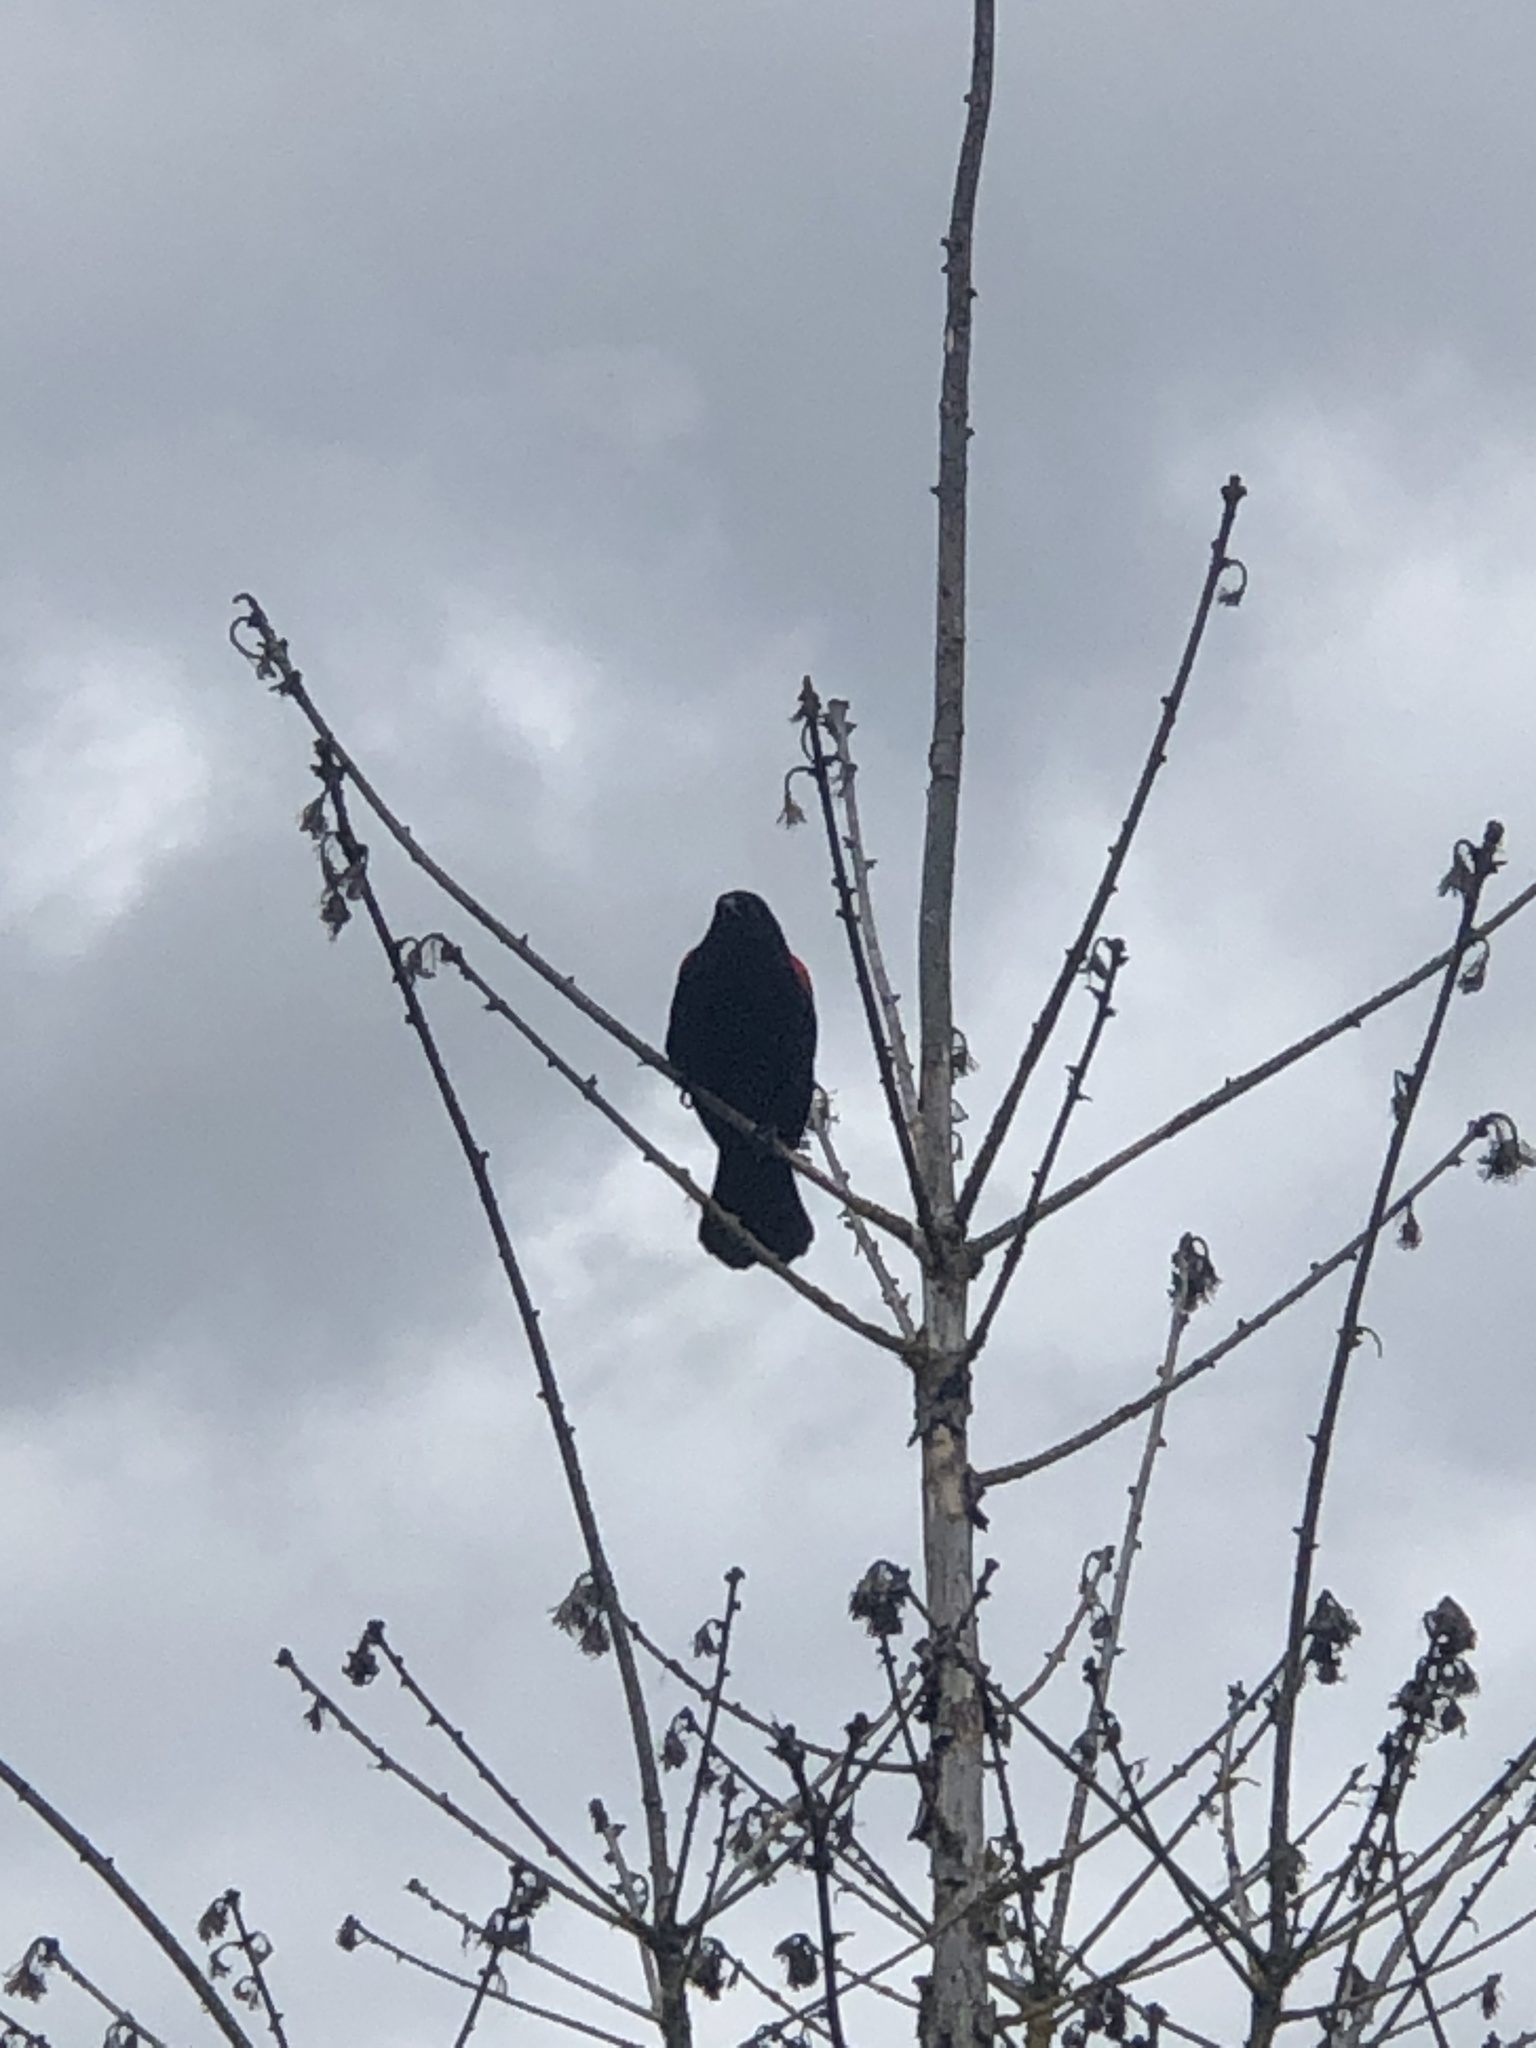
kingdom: Animalia
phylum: Chordata
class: Aves
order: Passeriformes
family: Icteridae
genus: Agelaius
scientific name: Agelaius phoeniceus
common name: Red-winged blackbird
